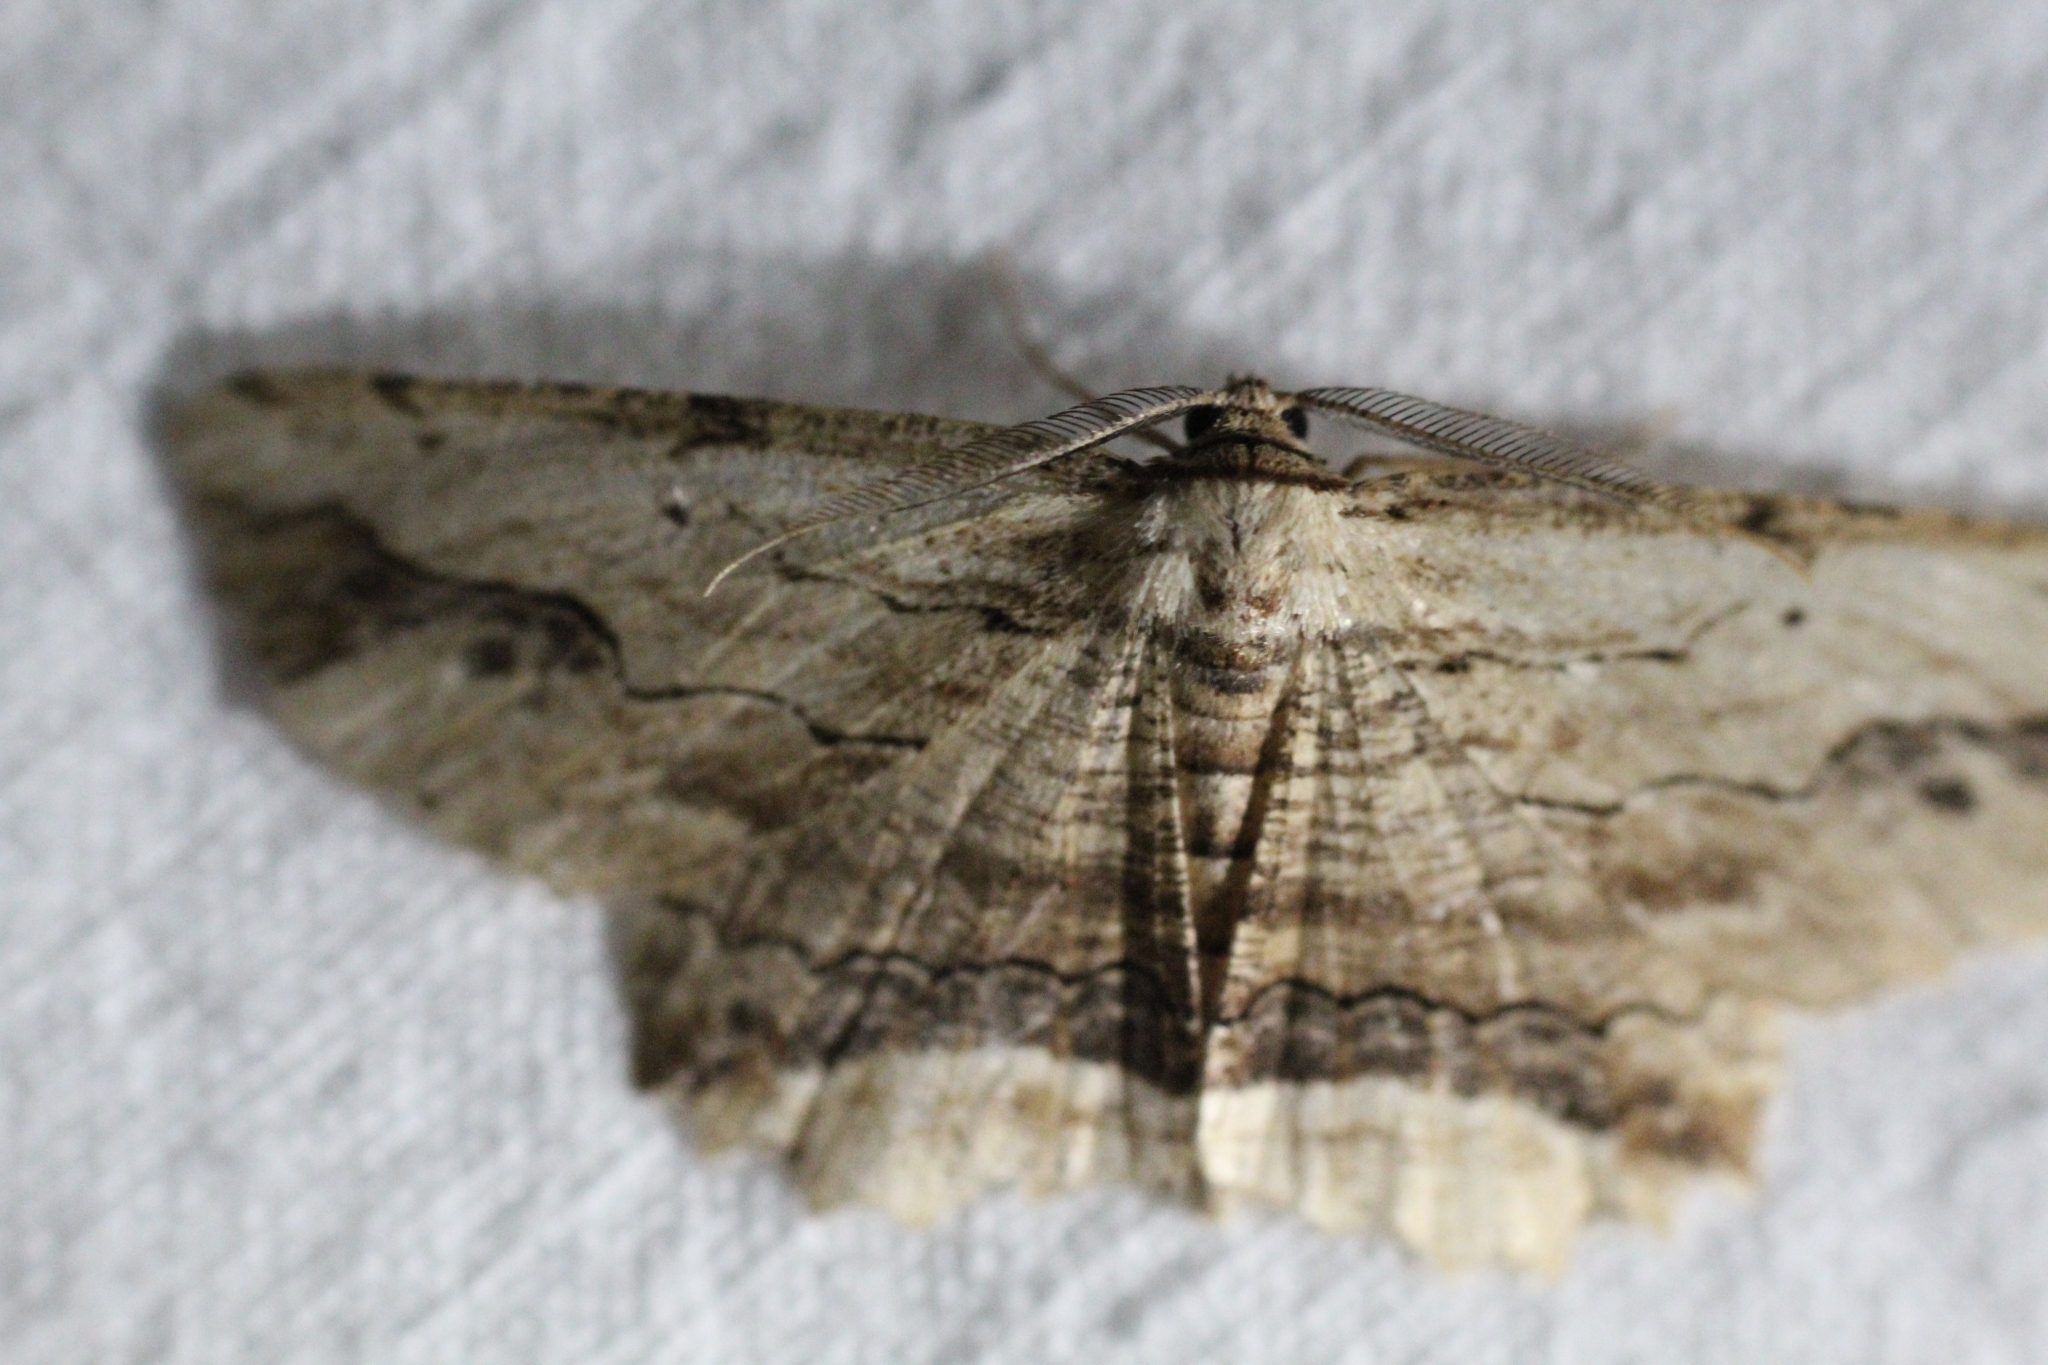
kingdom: Animalia
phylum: Arthropoda
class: Insecta
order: Lepidoptera
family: Geometridae
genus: Menophra
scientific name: Menophra abruptaria
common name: Waved umber
